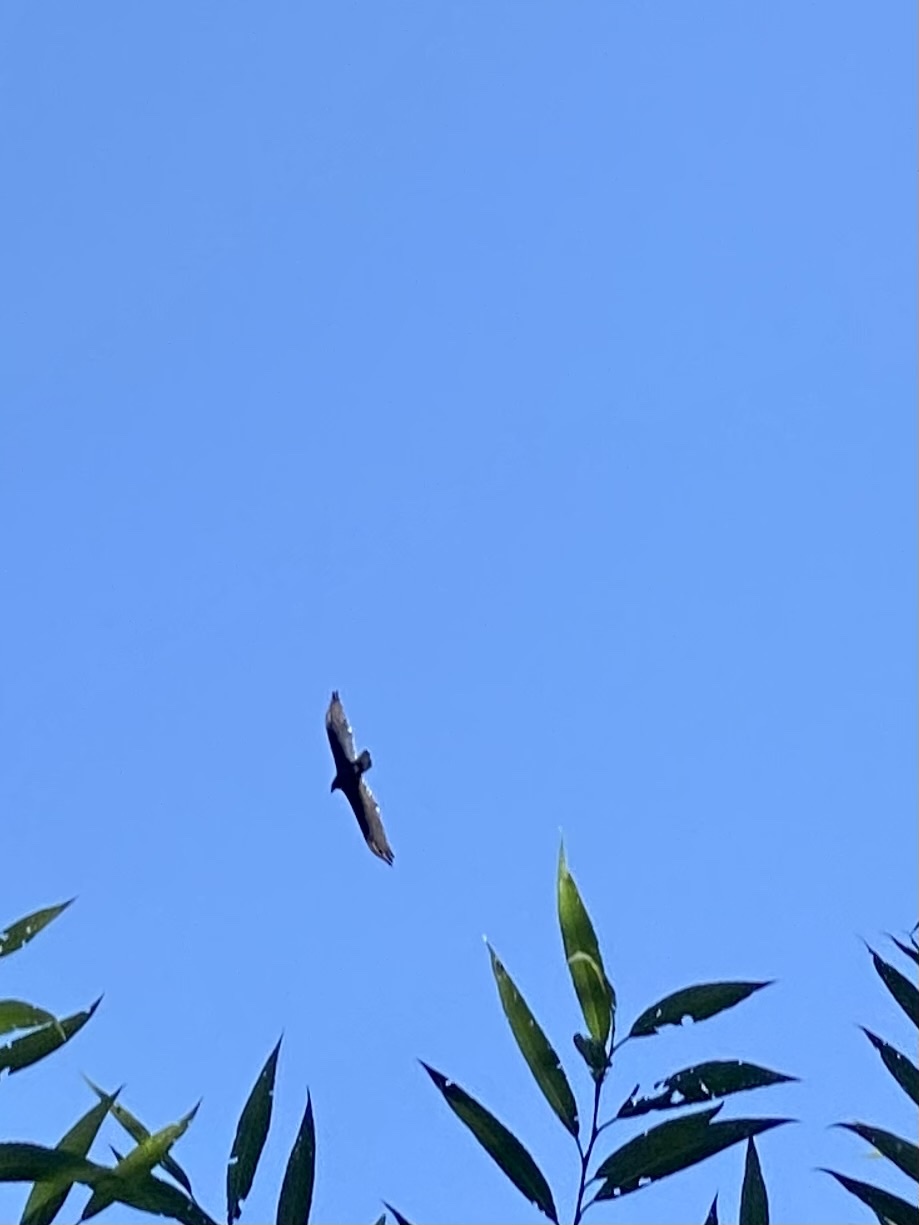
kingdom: Animalia
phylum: Chordata
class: Aves
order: Accipitriformes
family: Cathartidae
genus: Cathartes
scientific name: Cathartes aura
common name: Turkey vulture
